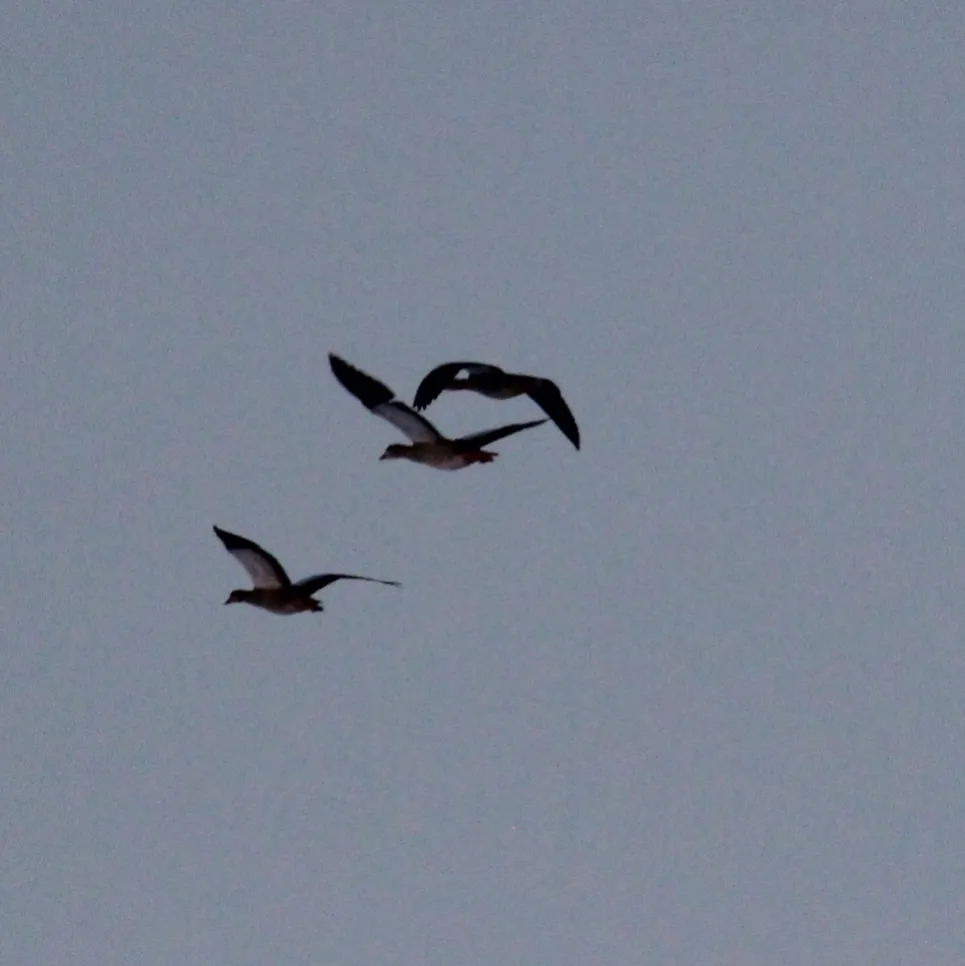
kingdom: Animalia
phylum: Chordata
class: Aves
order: Anseriformes
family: Anatidae
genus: Alopochen
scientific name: Alopochen aegyptiaca
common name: Egyptian goose
